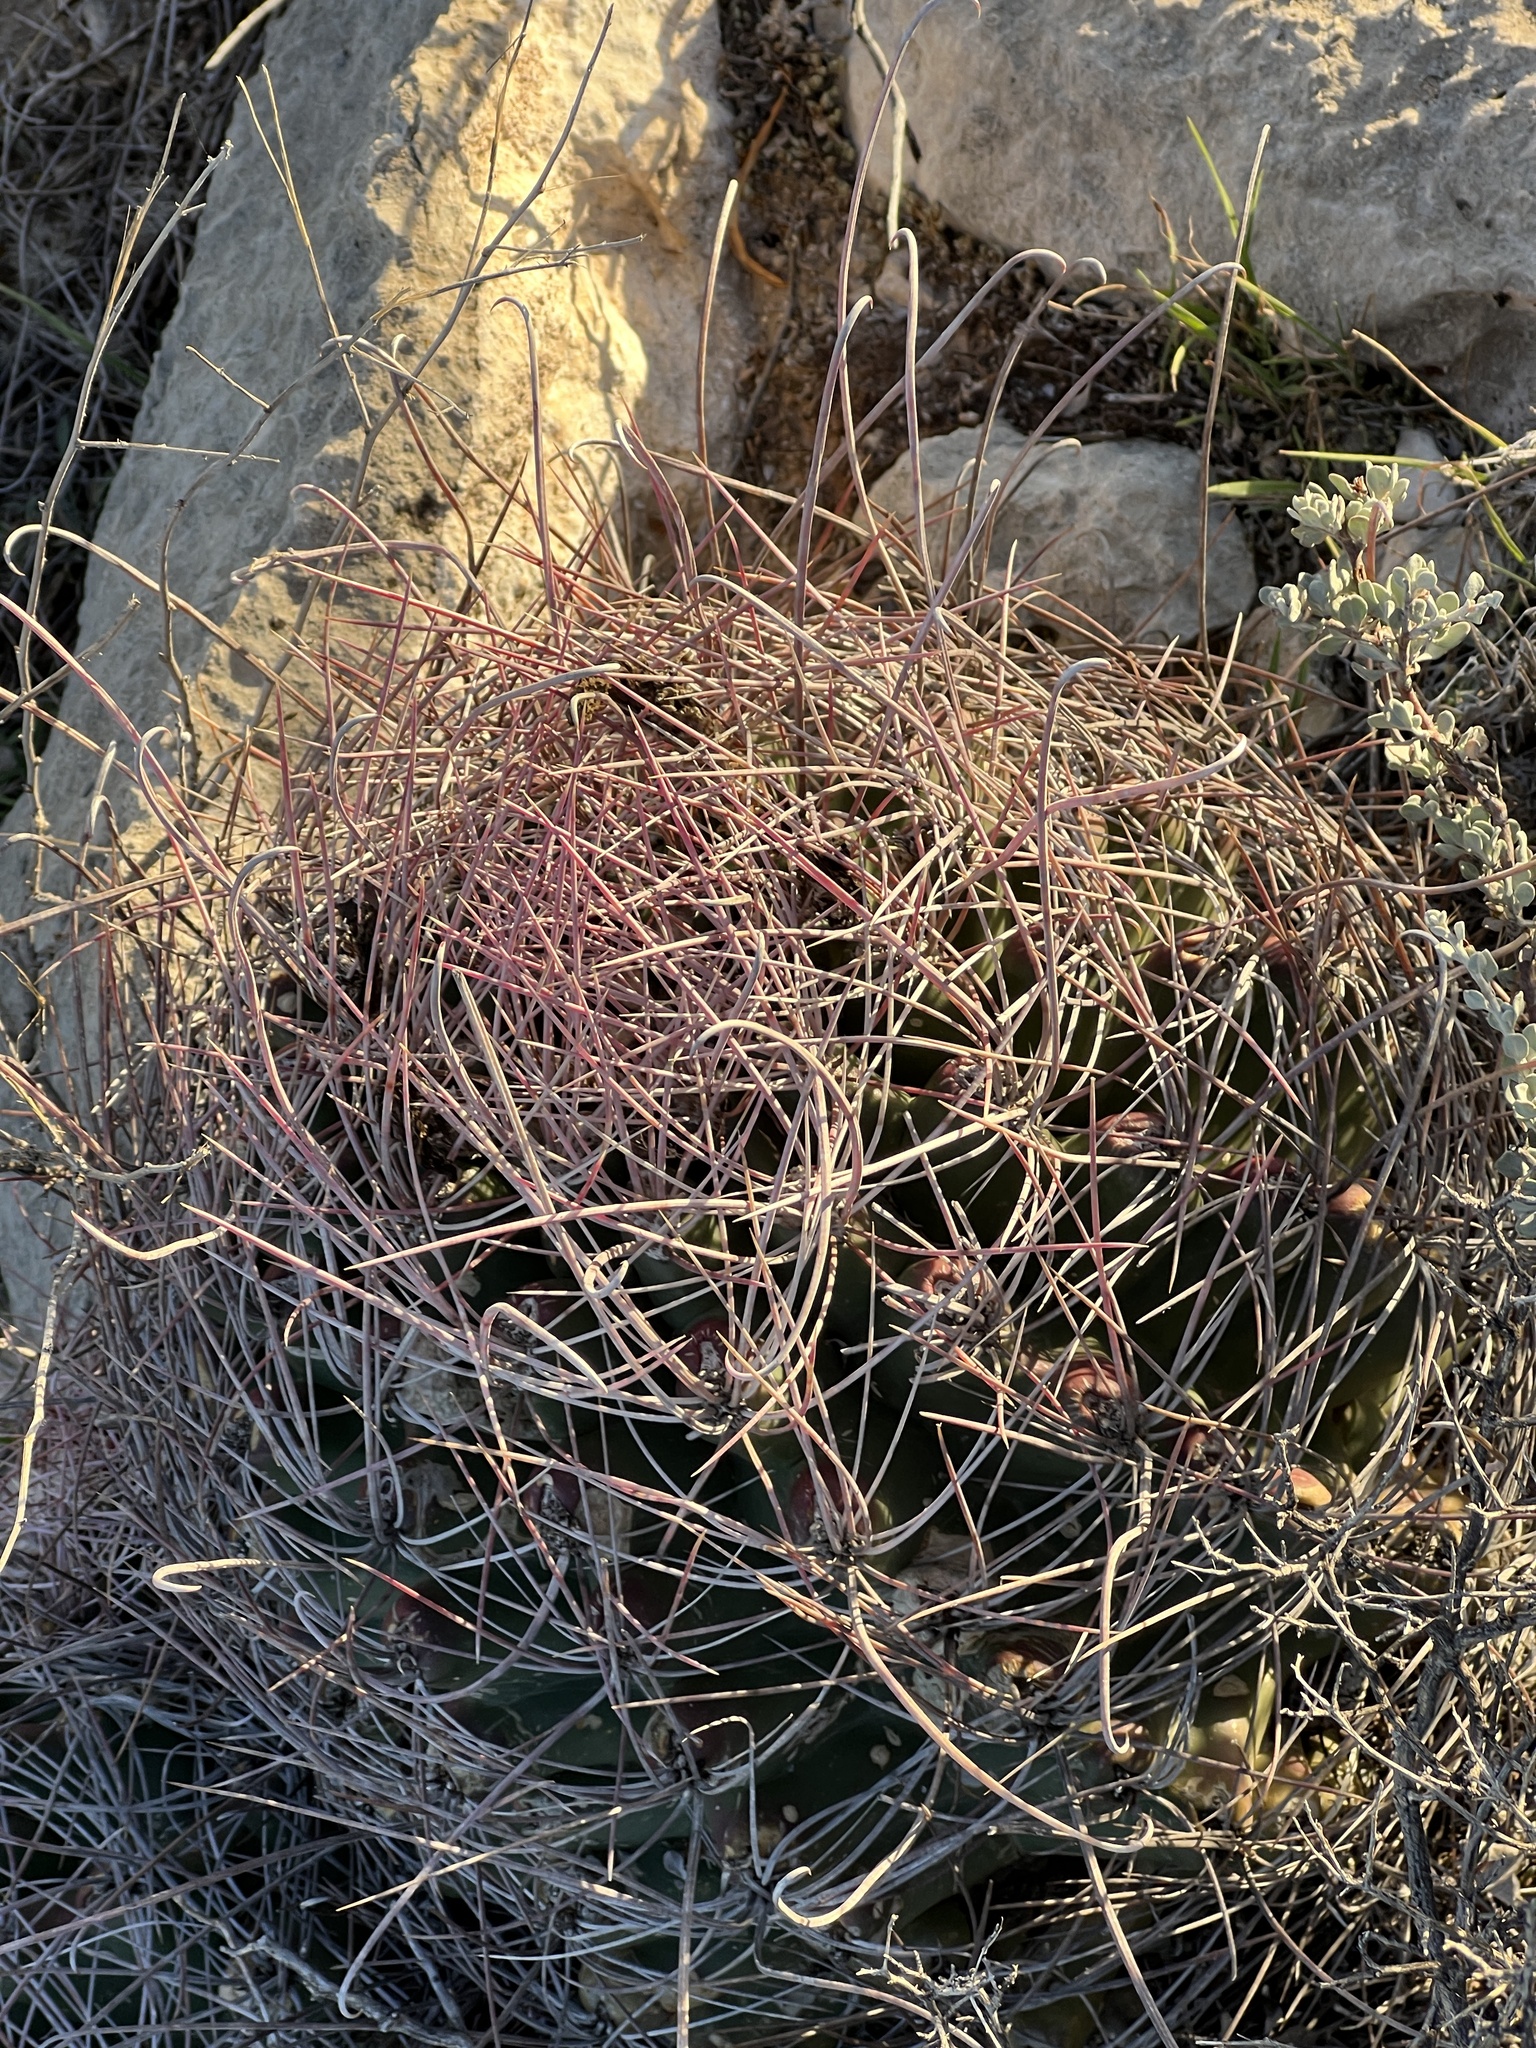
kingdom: Plantae
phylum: Tracheophyta
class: Magnoliopsida
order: Caryophyllales
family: Cactaceae
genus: Bisnaga
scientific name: Bisnaga hamatacantha
